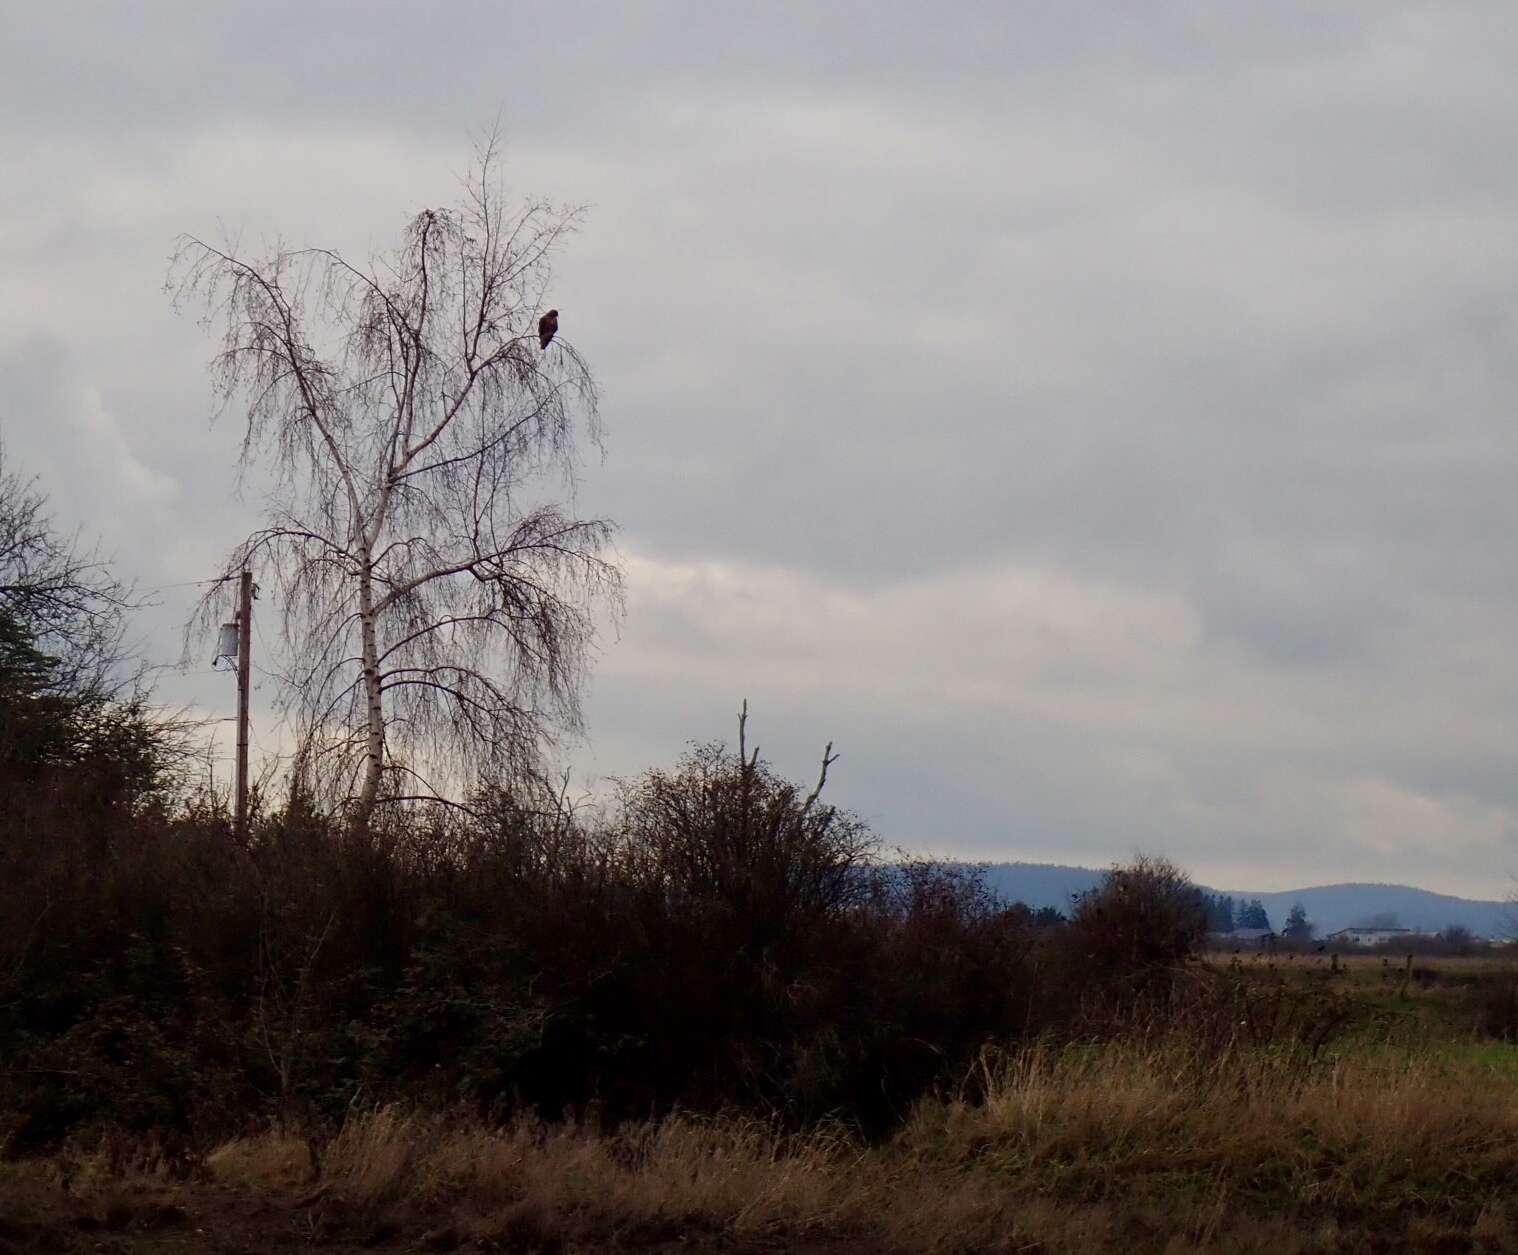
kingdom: Animalia
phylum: Chordata
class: Aves
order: Accipitriformes
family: Accipitridae
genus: Haliaeetus
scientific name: Haliaeetus leucocephalus
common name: Bald eagle
